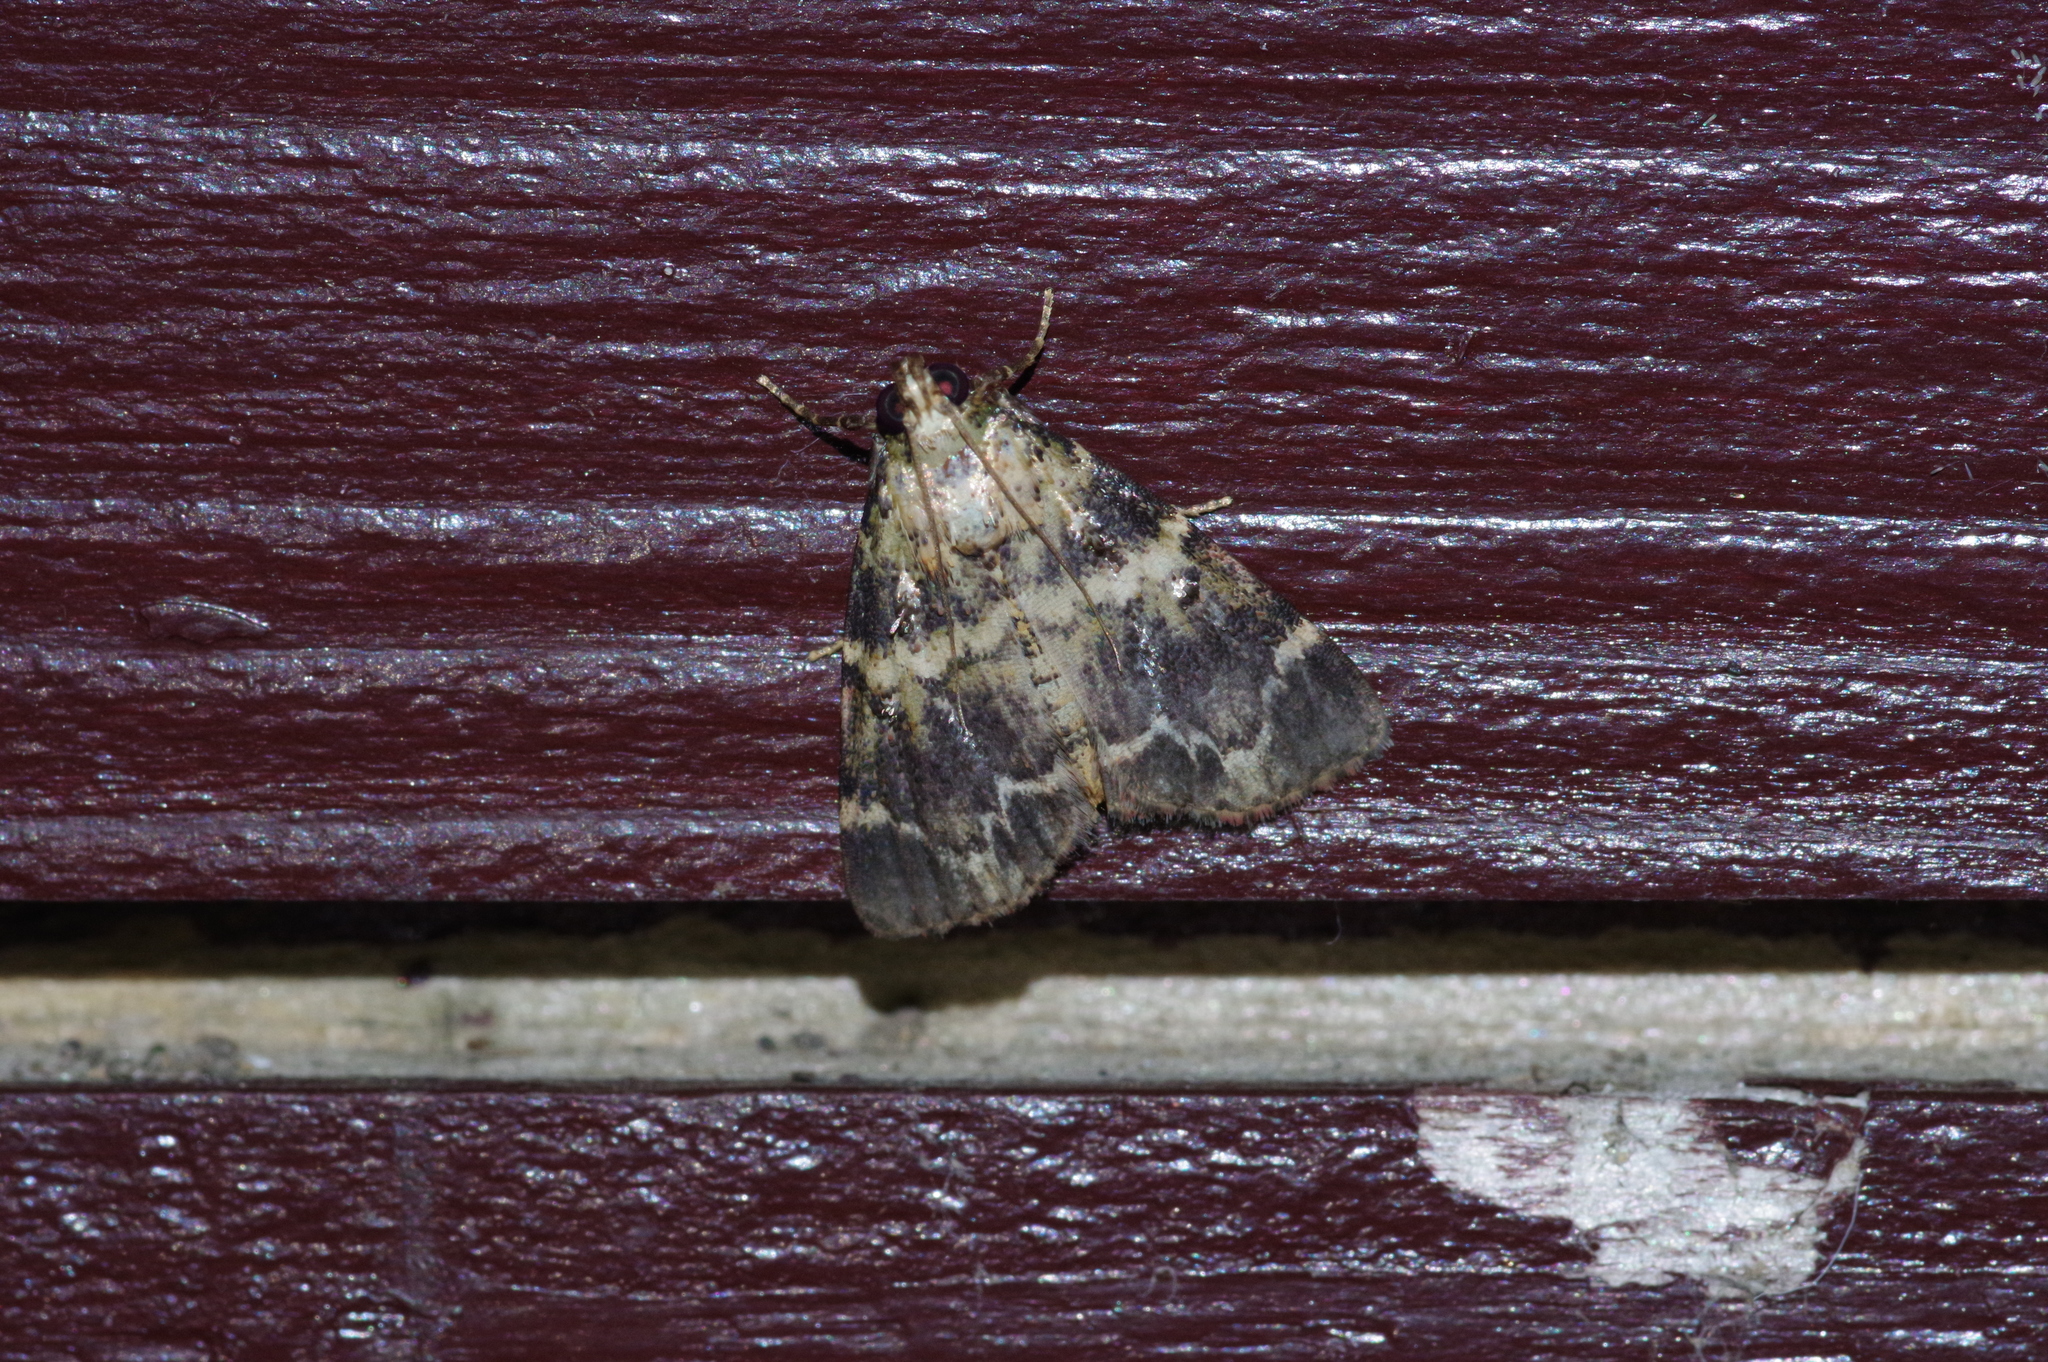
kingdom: Animalia
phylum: Arthropoda
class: Insecta
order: Lepidoptera
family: Pyralidae
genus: Orthaga
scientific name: Orthaga olivacea
